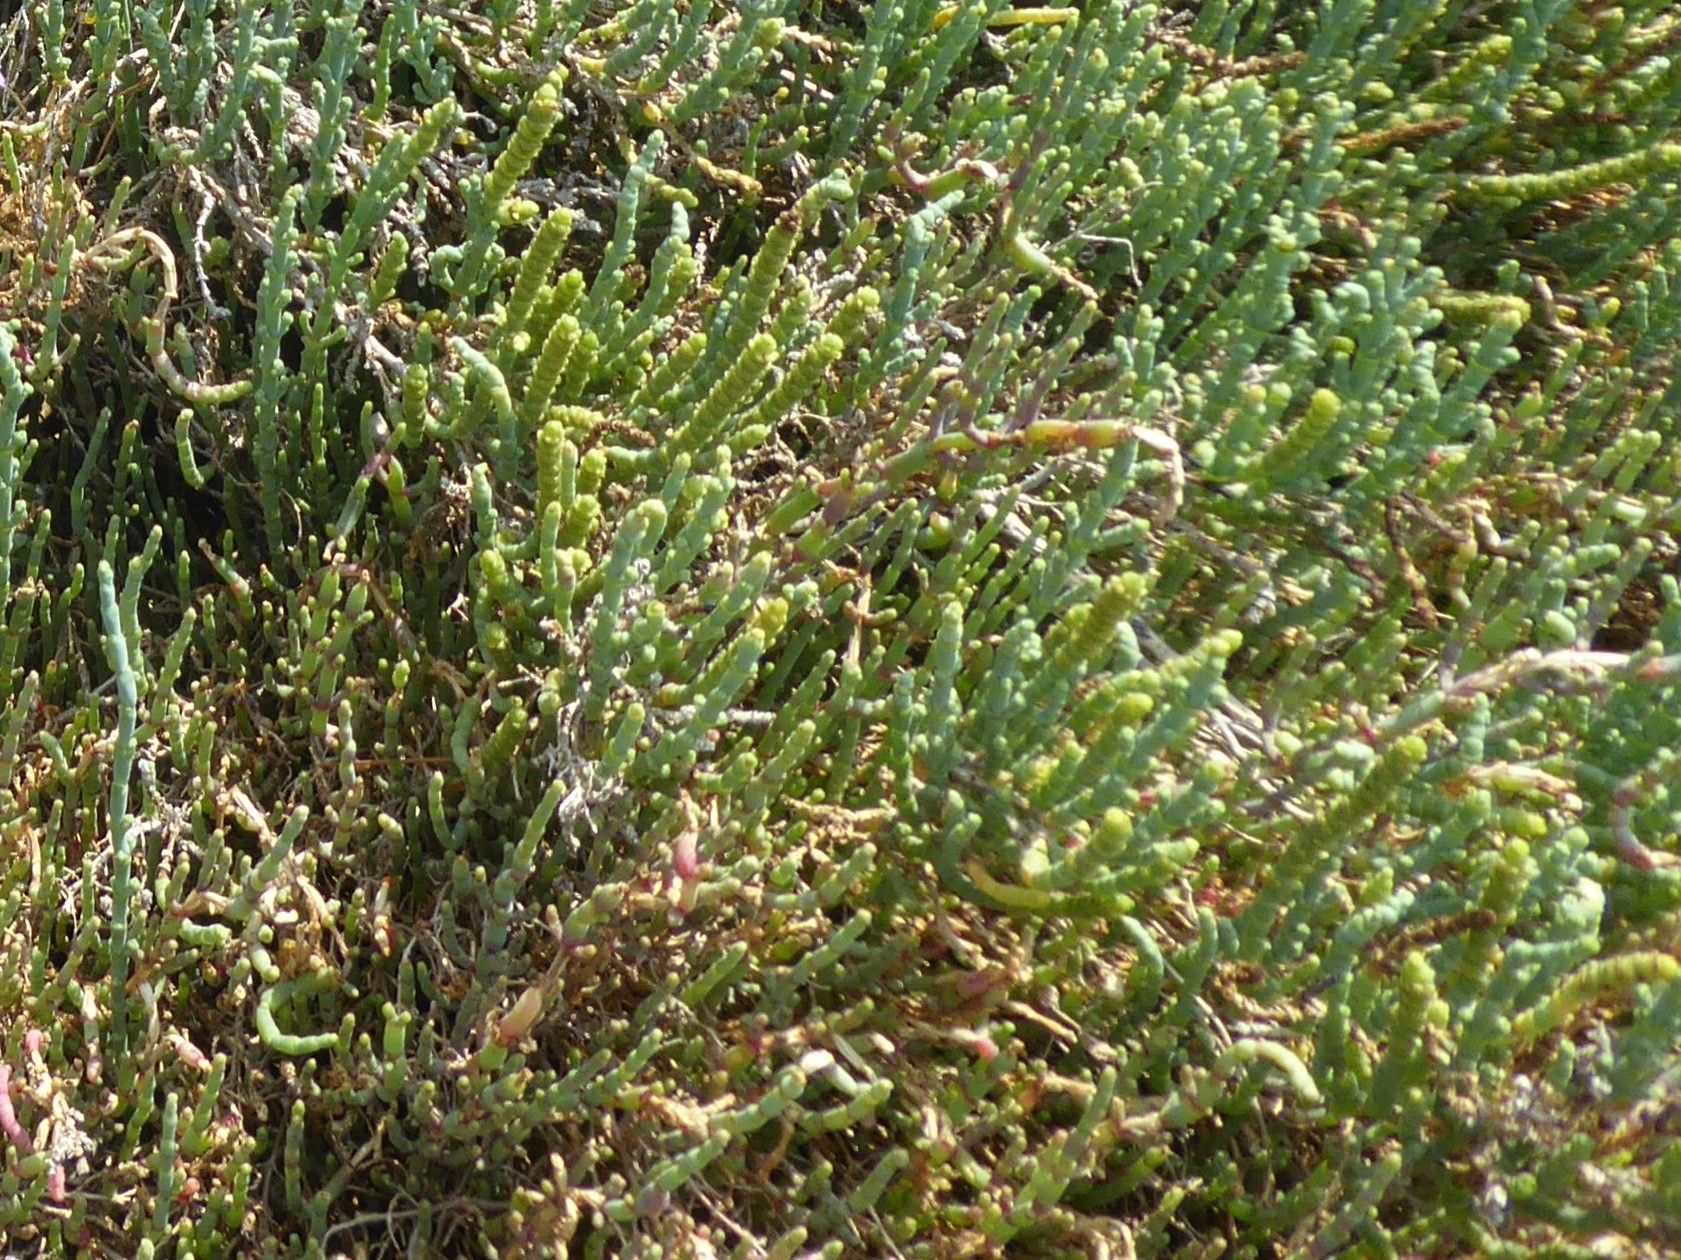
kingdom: Plantae
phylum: Tracheophyta
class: Magnoliopsida
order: Caryophyllales
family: Amaranthaceae
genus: Arthrocaulon
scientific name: Arthrocaulon macrostachyum
